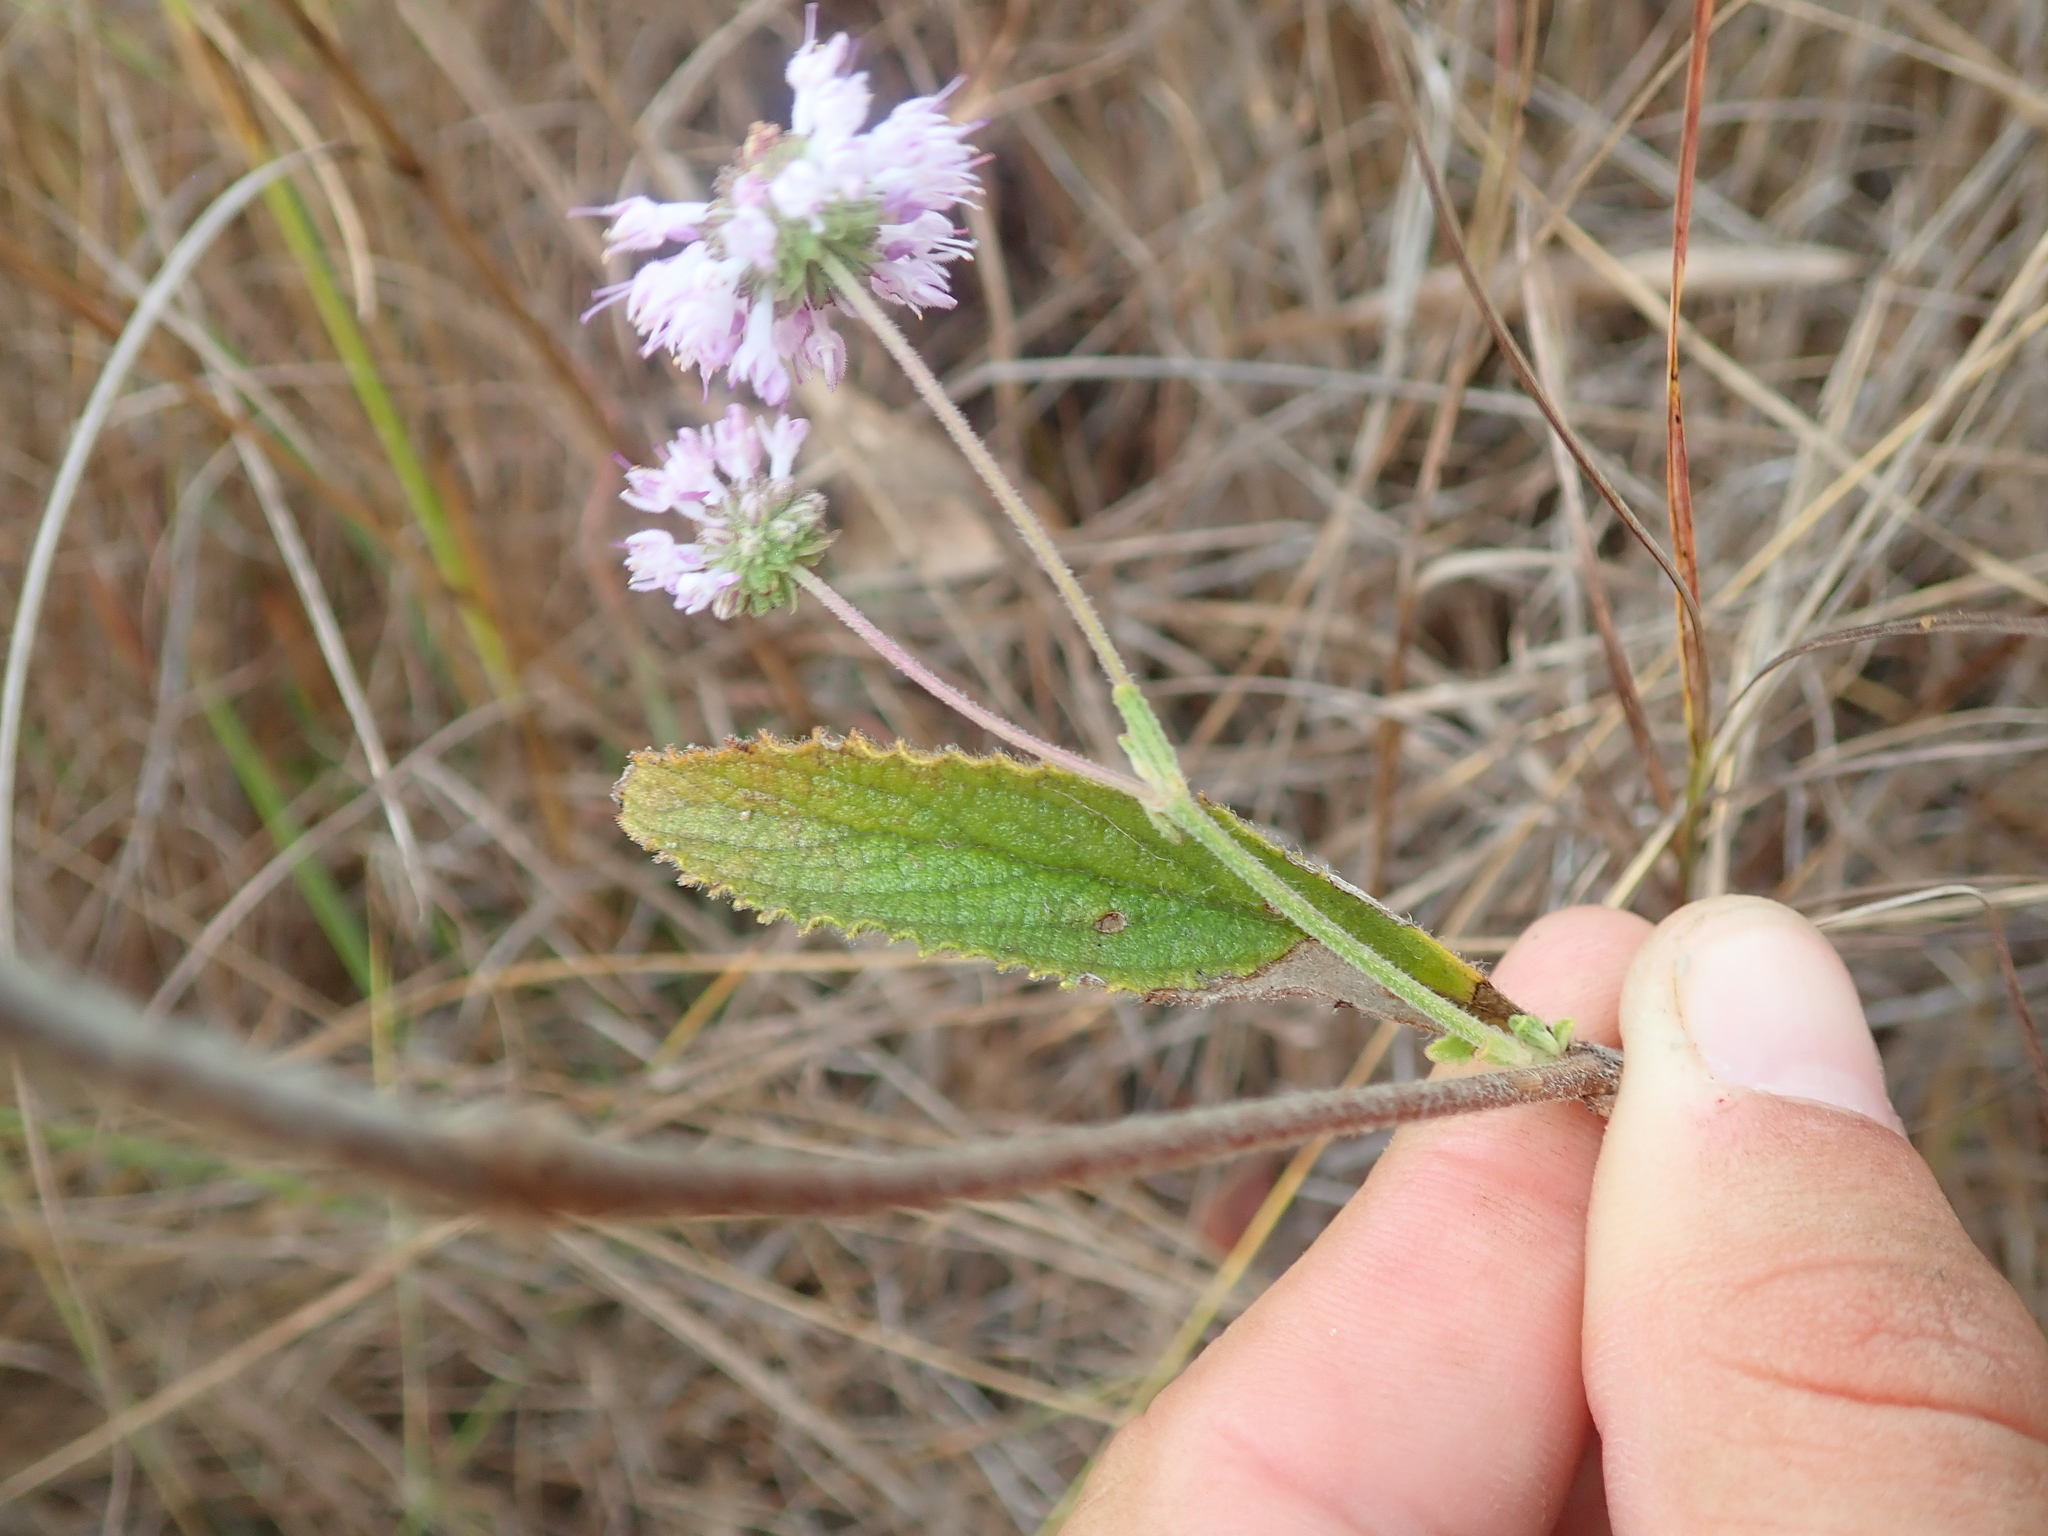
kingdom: Plantae
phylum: Tracheophyta
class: Magnoliopsida
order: Lamiales
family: Lamiaceae
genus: Cyanocephalus
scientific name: Cyanocephalus rugosus
